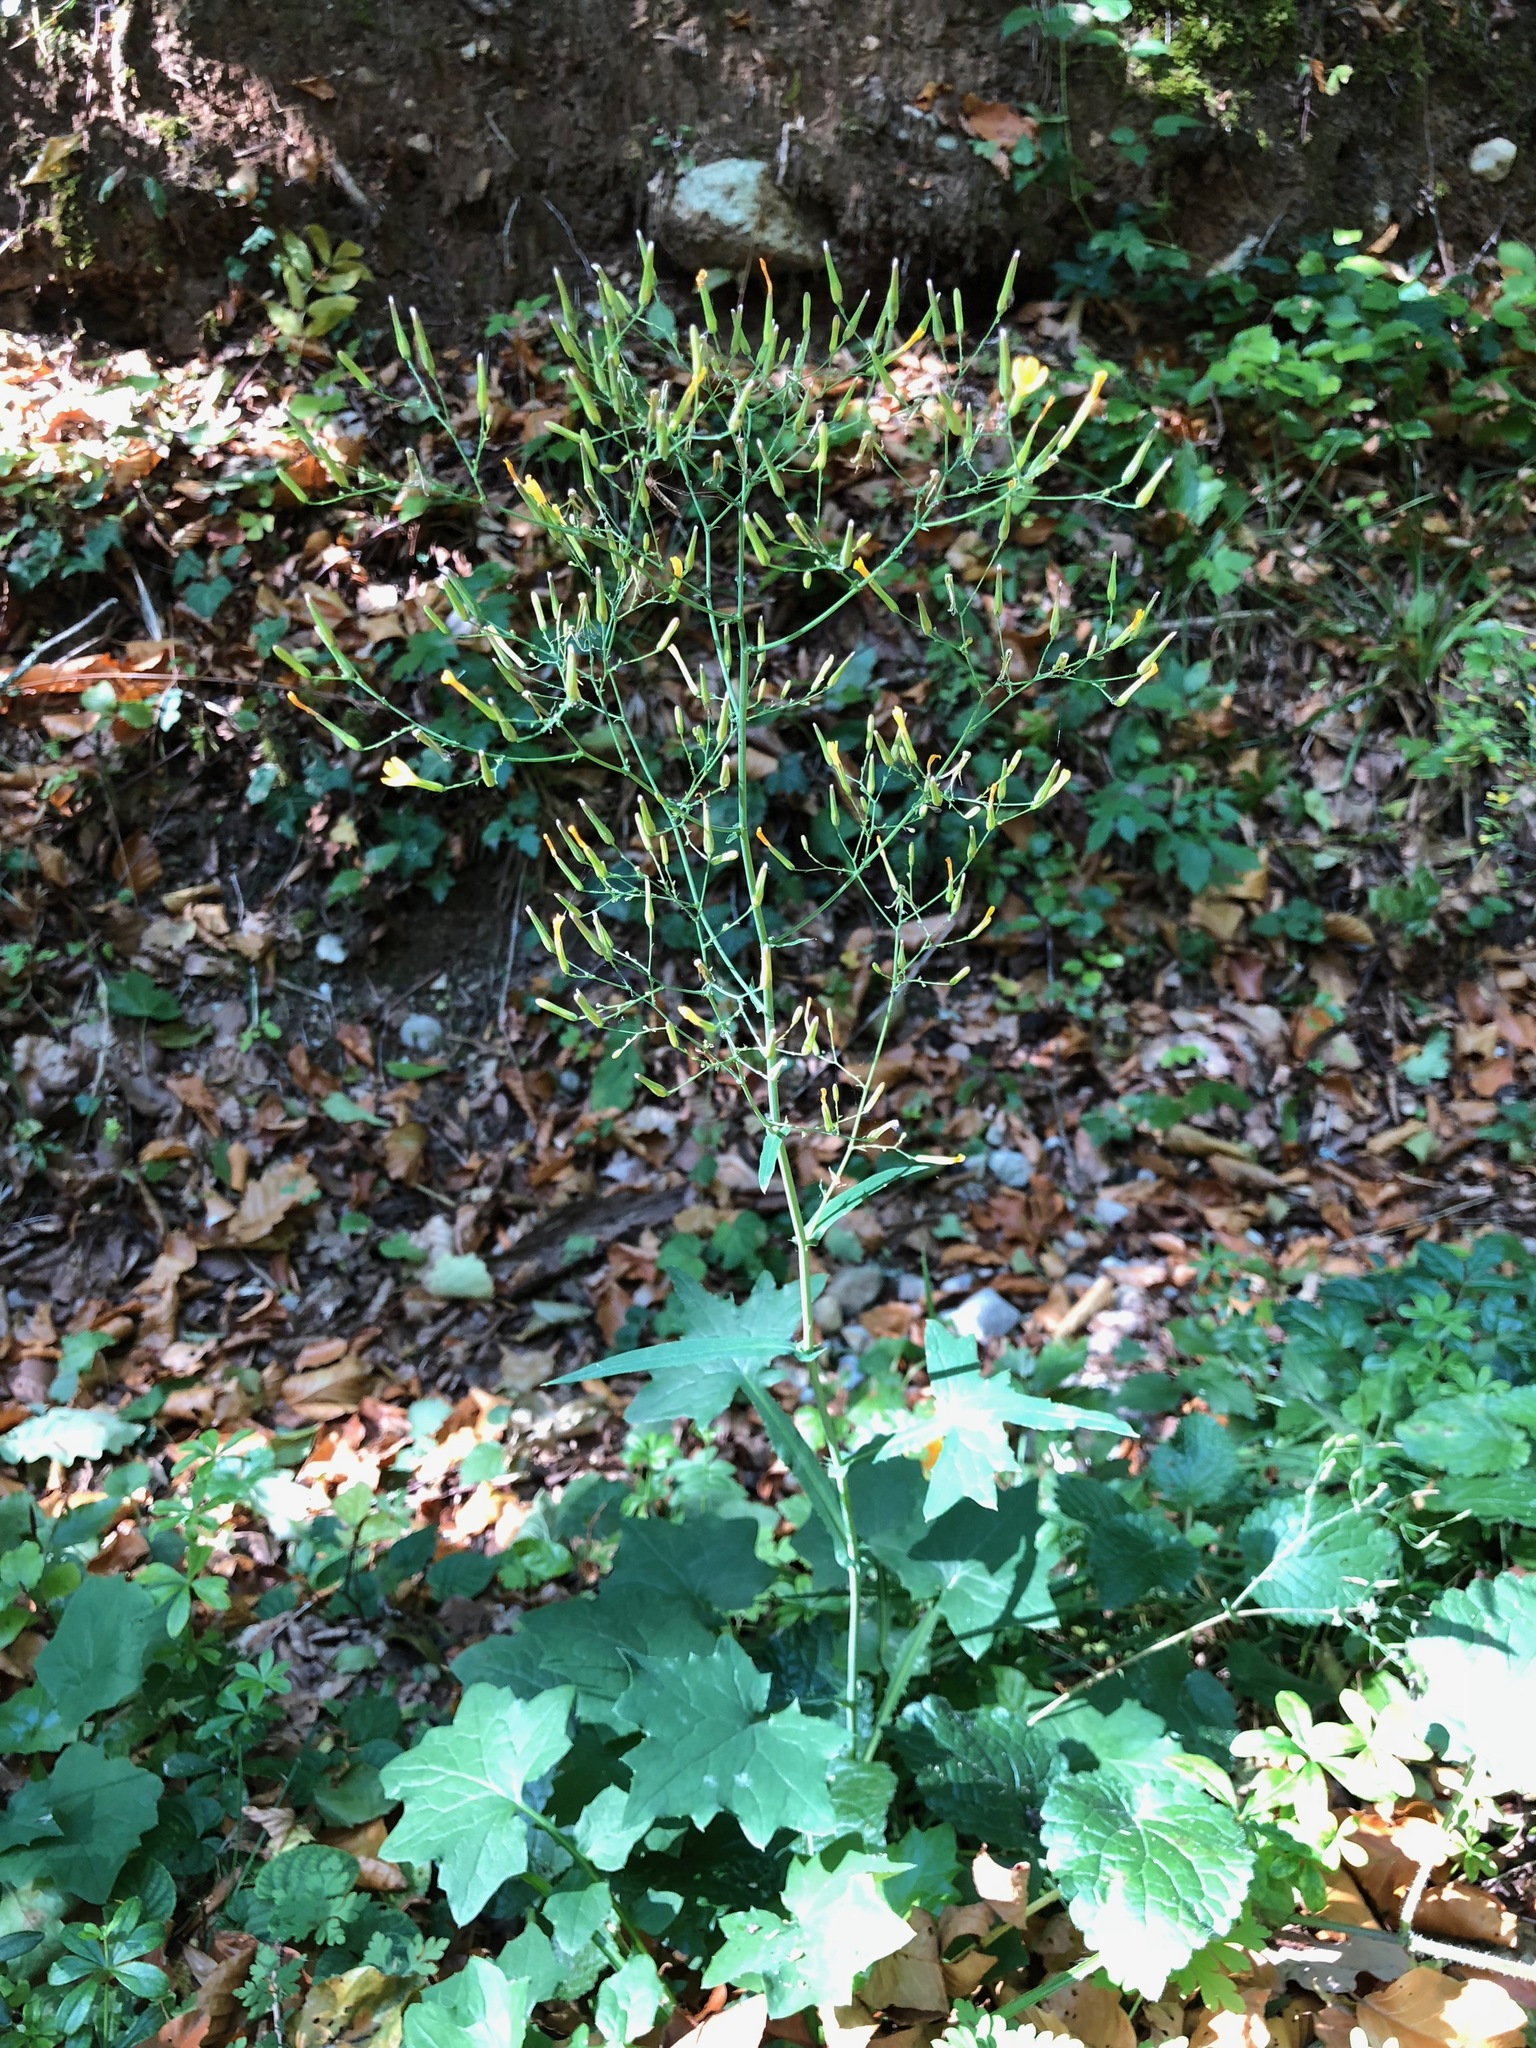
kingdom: Plantae
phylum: Tracheophyta
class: Magnoliopsida
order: Asterales
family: Asteraceae
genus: Mycelis
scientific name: Mycelis muralis
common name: Wall lettuce
